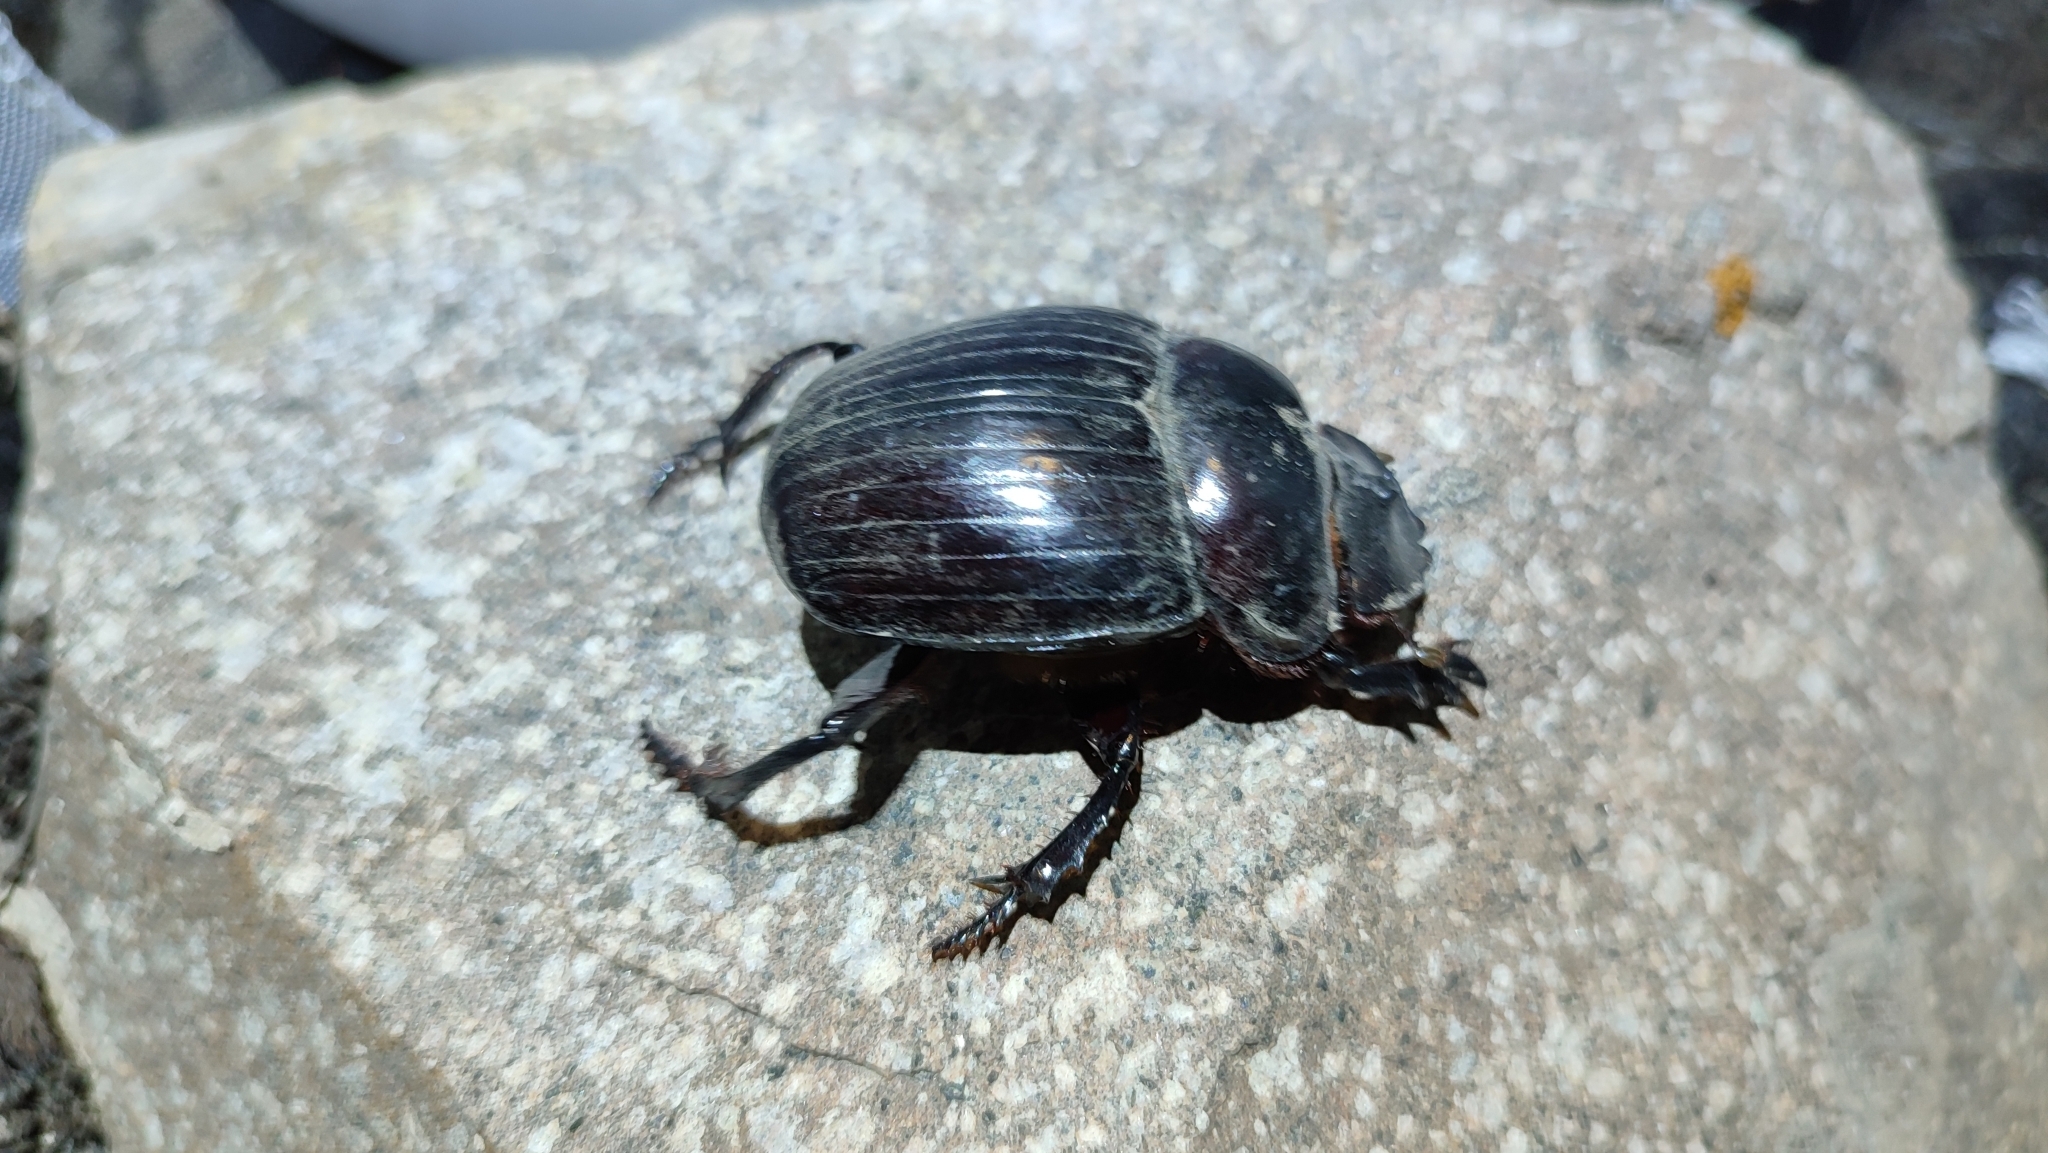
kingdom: Animalia
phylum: Arthropoda
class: Insecta
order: Coleoptera
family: Scarabaeidae
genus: Synapsis
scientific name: Synapsis tmolus
